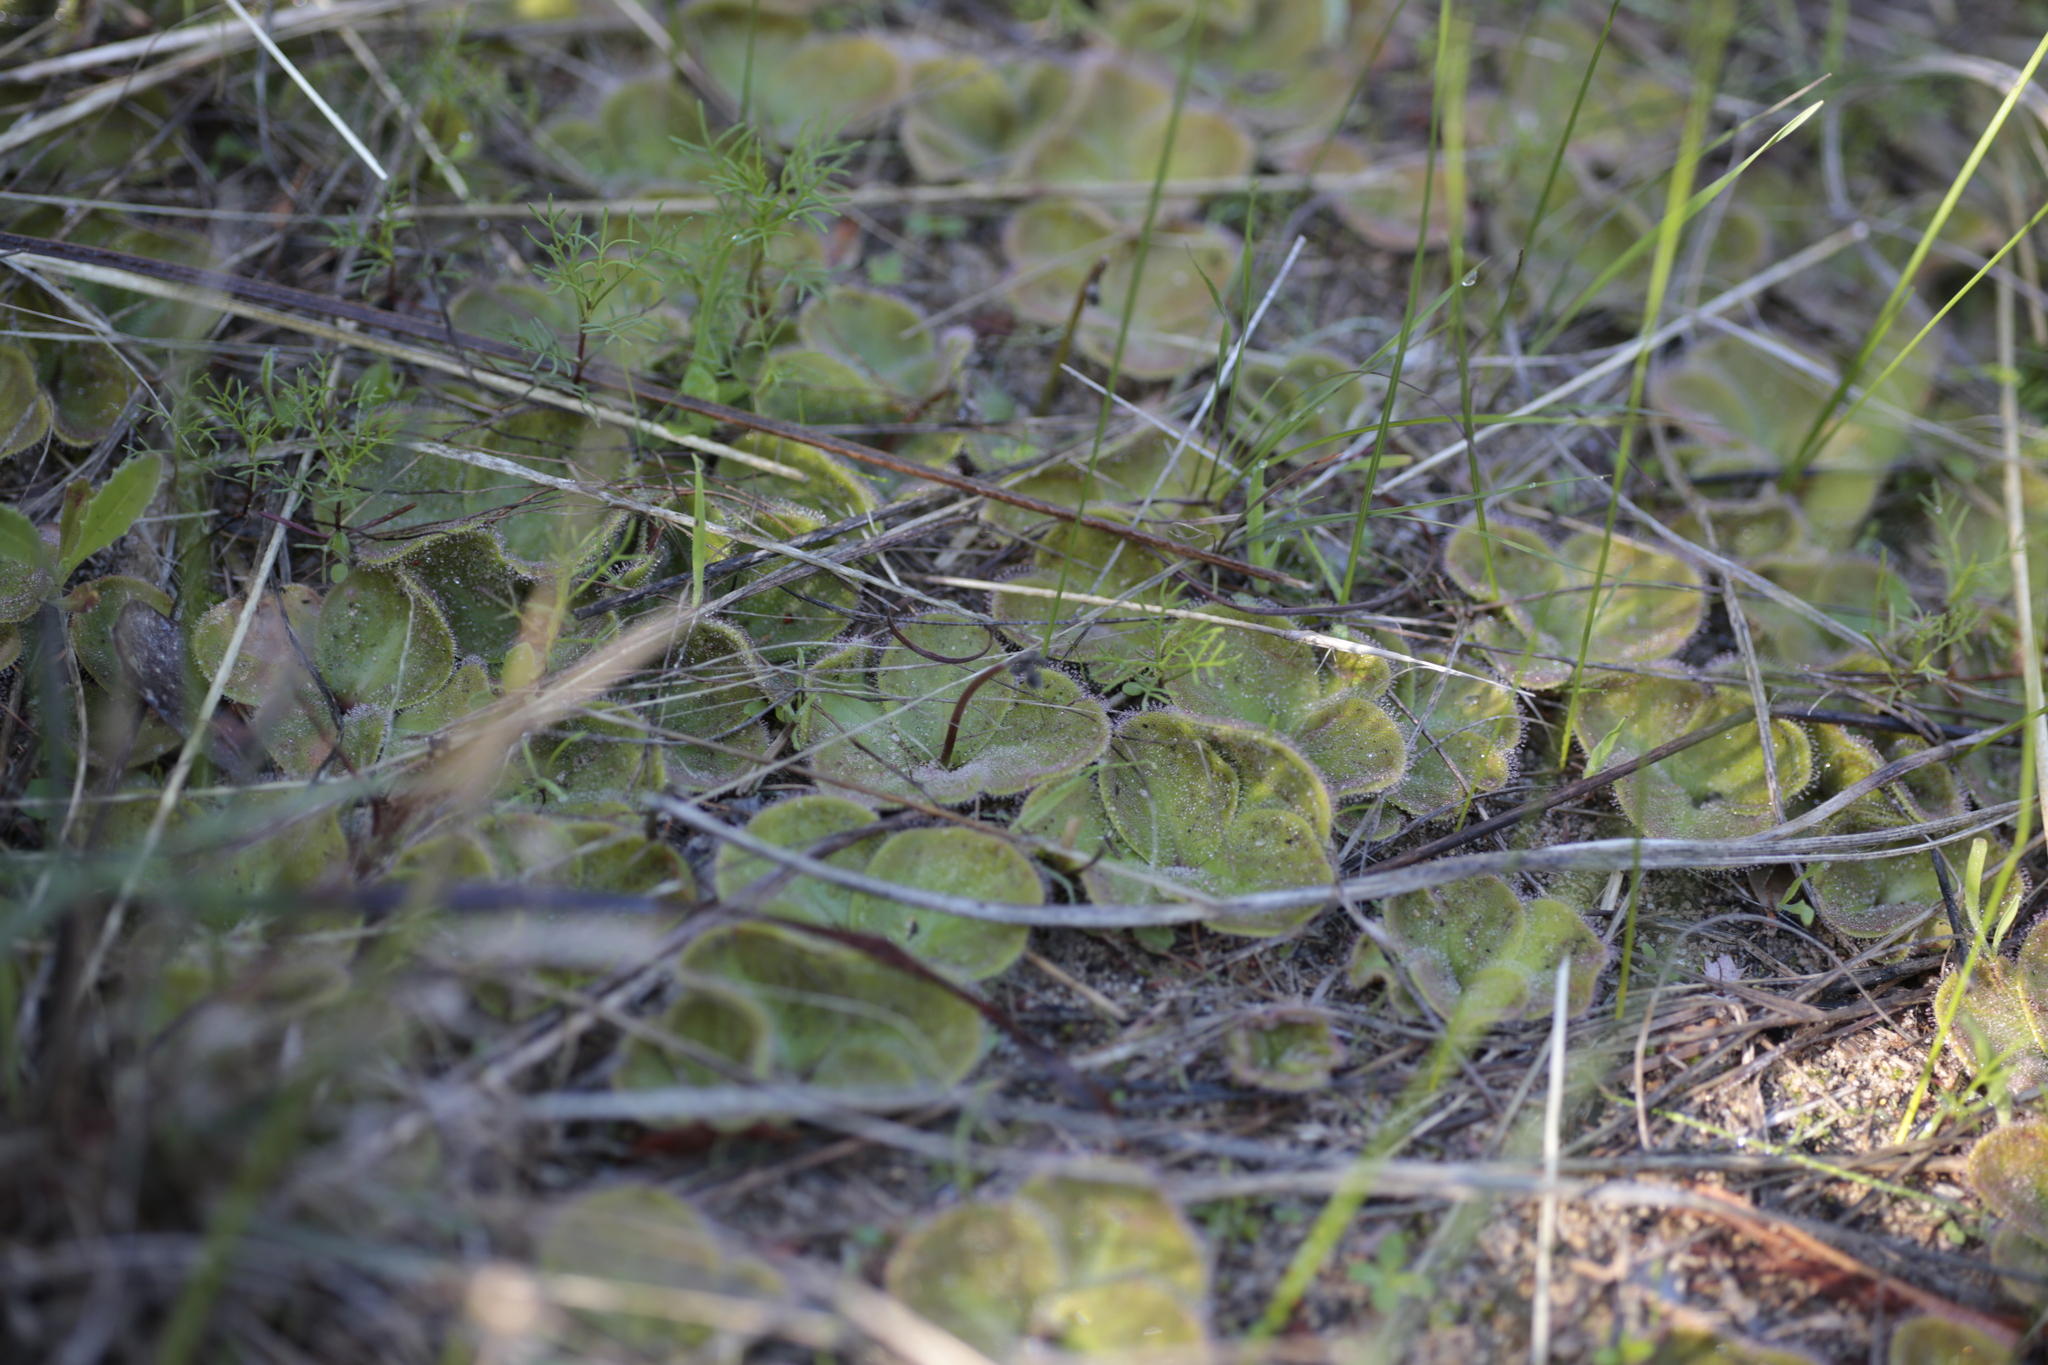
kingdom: Plantae
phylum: Tracheophyta
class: Magnoliopsida
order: Caryophyllales
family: Droseraceae
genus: Drosera
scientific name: Drosera erythrorhiza
